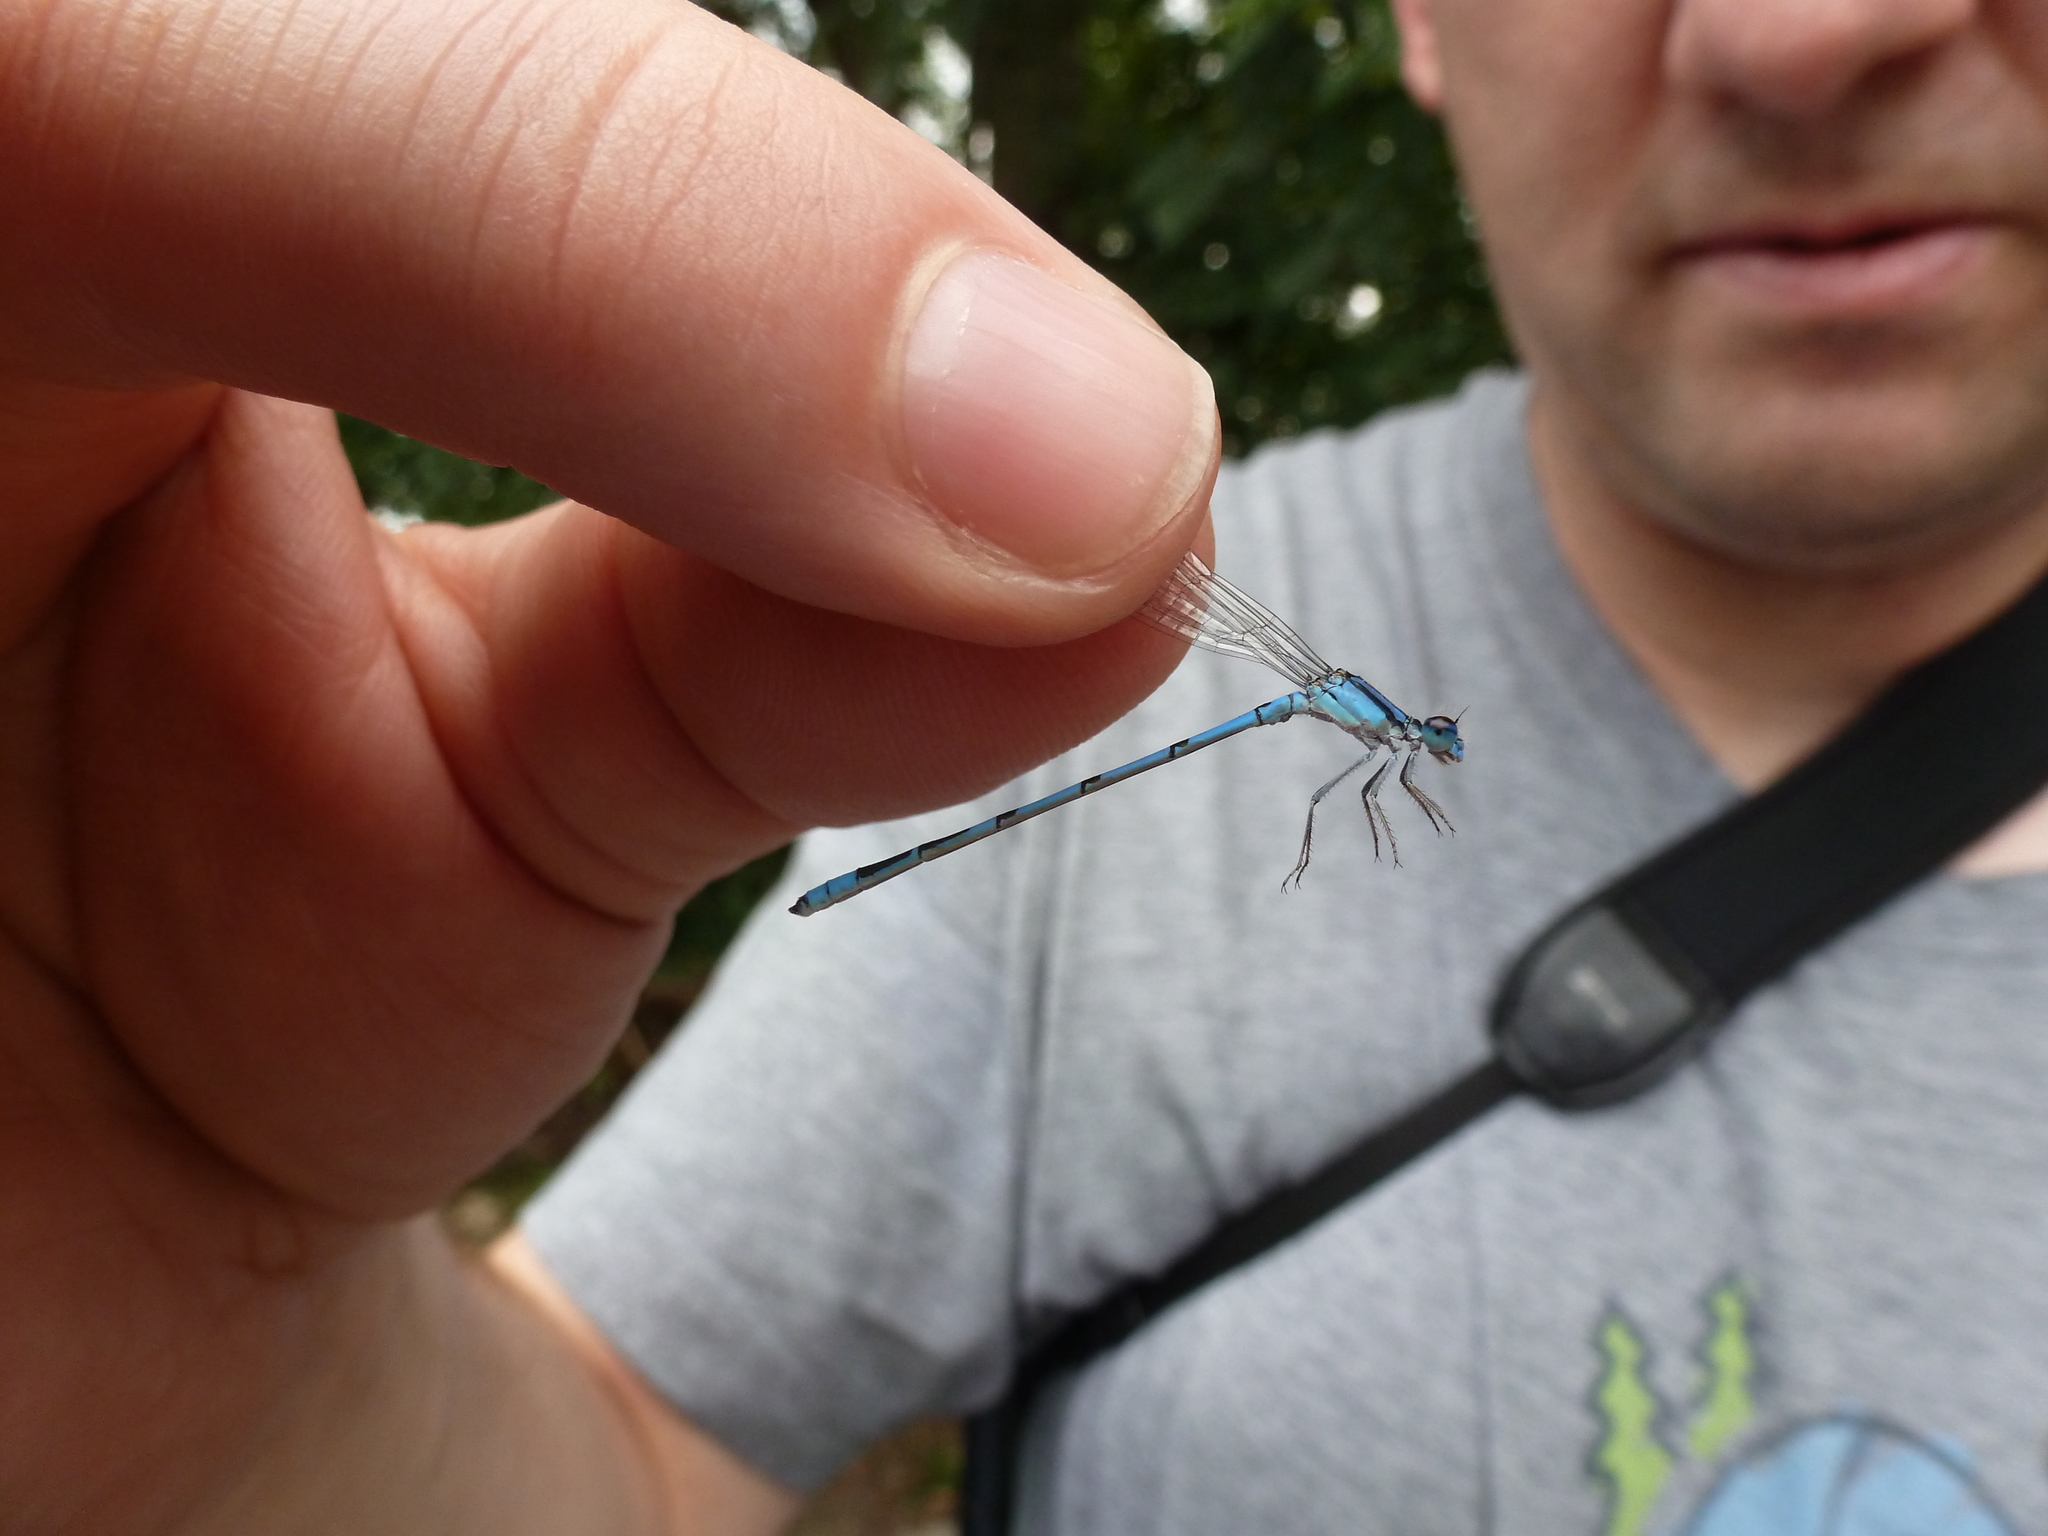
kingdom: Animalia
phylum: Arthropoda
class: Insecta
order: Odonata
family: Coenagrionidae
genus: Enallagma
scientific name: Enallagma civile
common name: Damselfly
